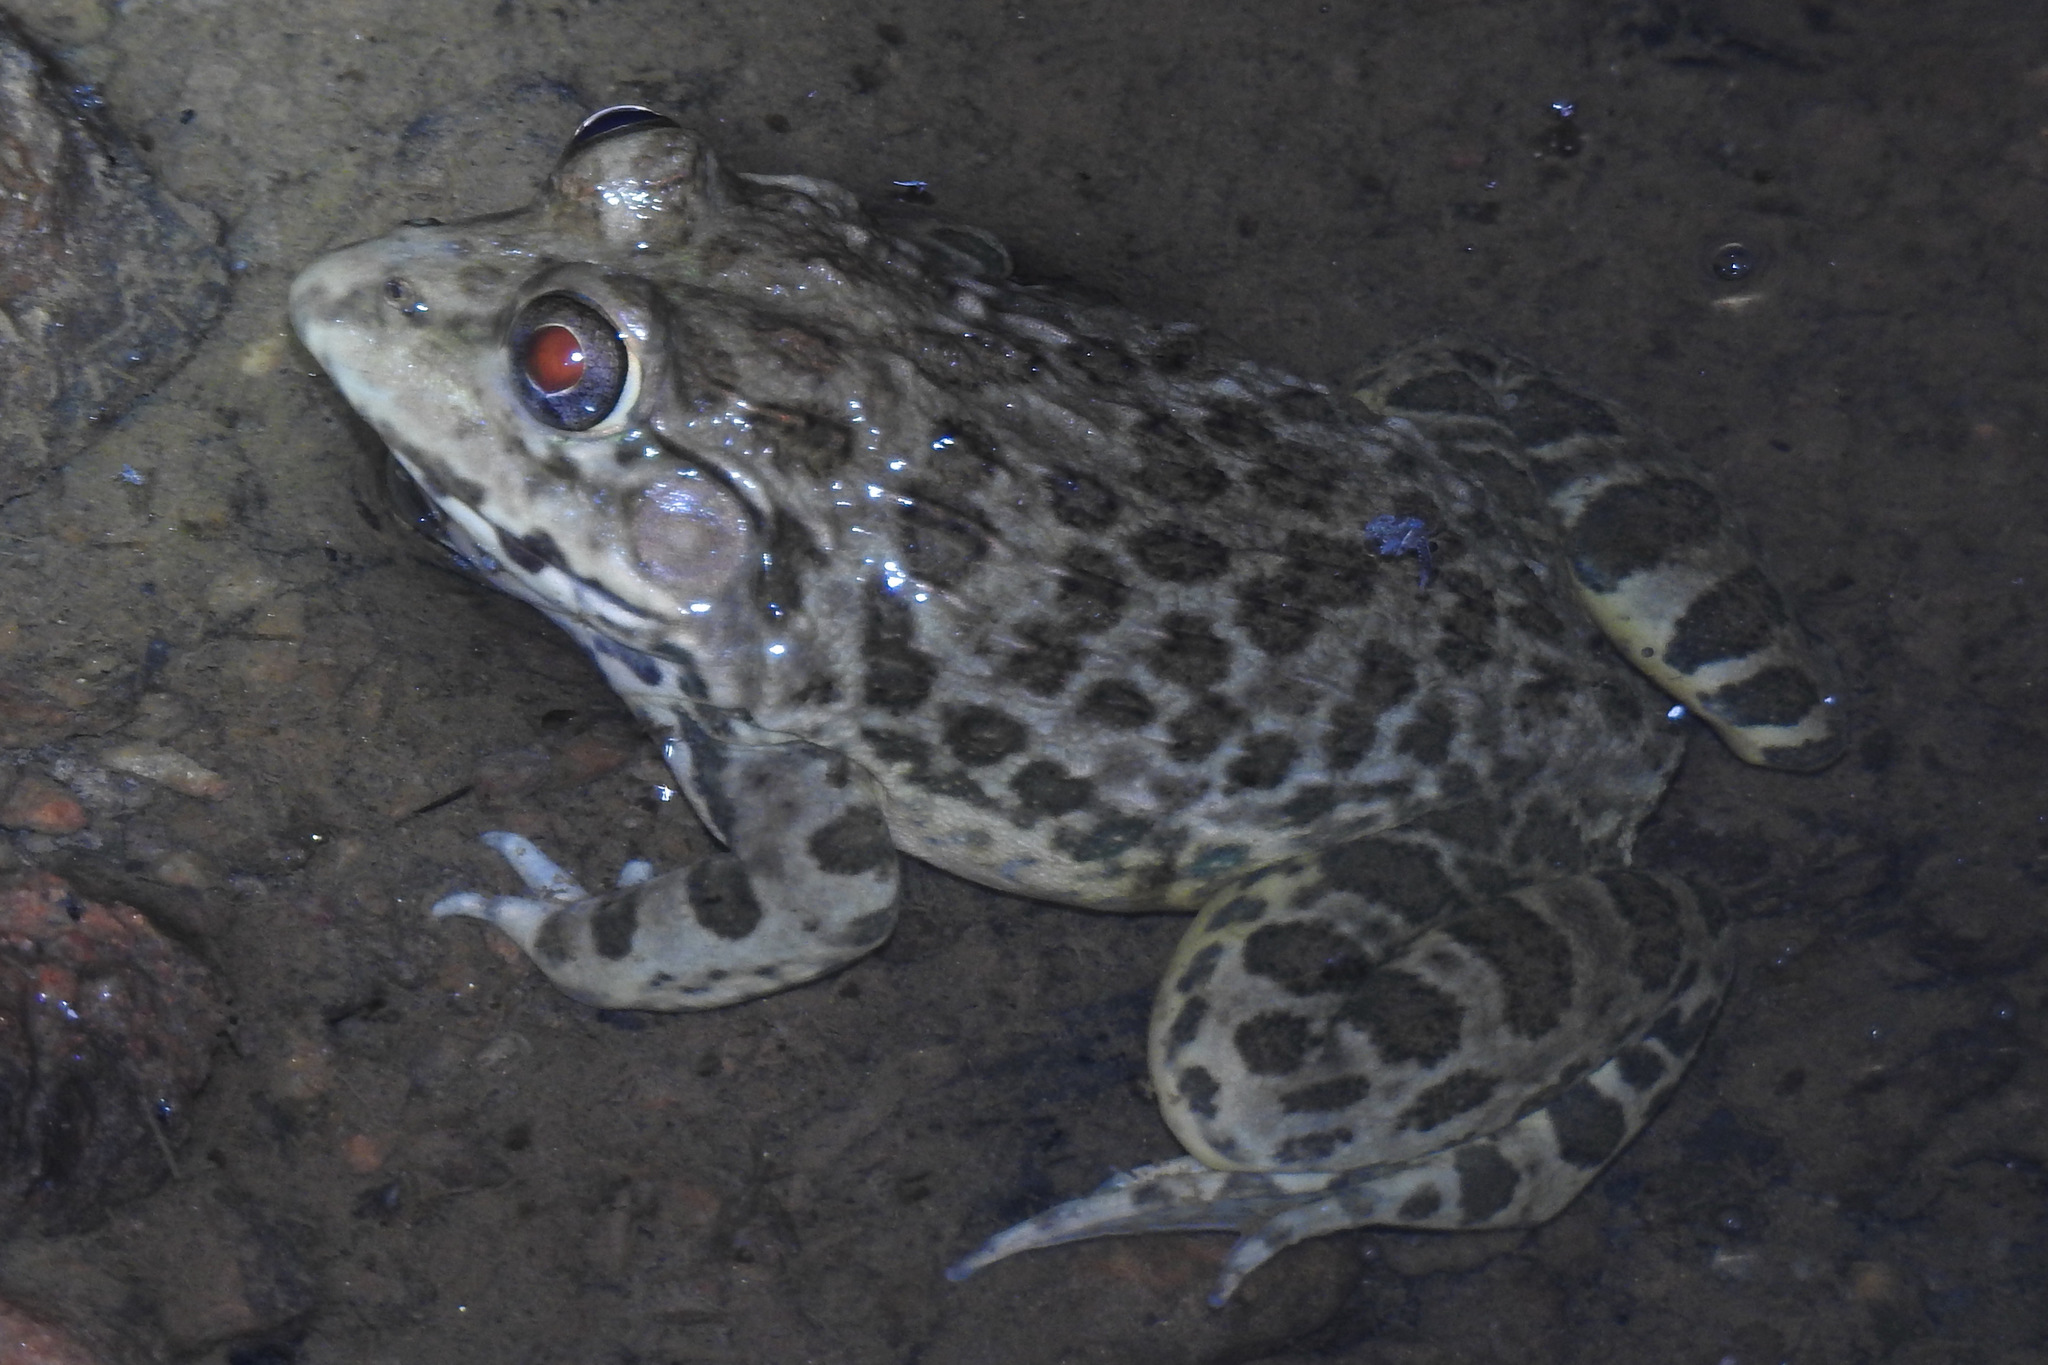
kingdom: Animalia
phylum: Chordata
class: Amphibia
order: Anura
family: Dicroglossidae
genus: Hoplobatrachus
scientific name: Hoplobatrachus crassus
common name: Jerdon's bullfrog
